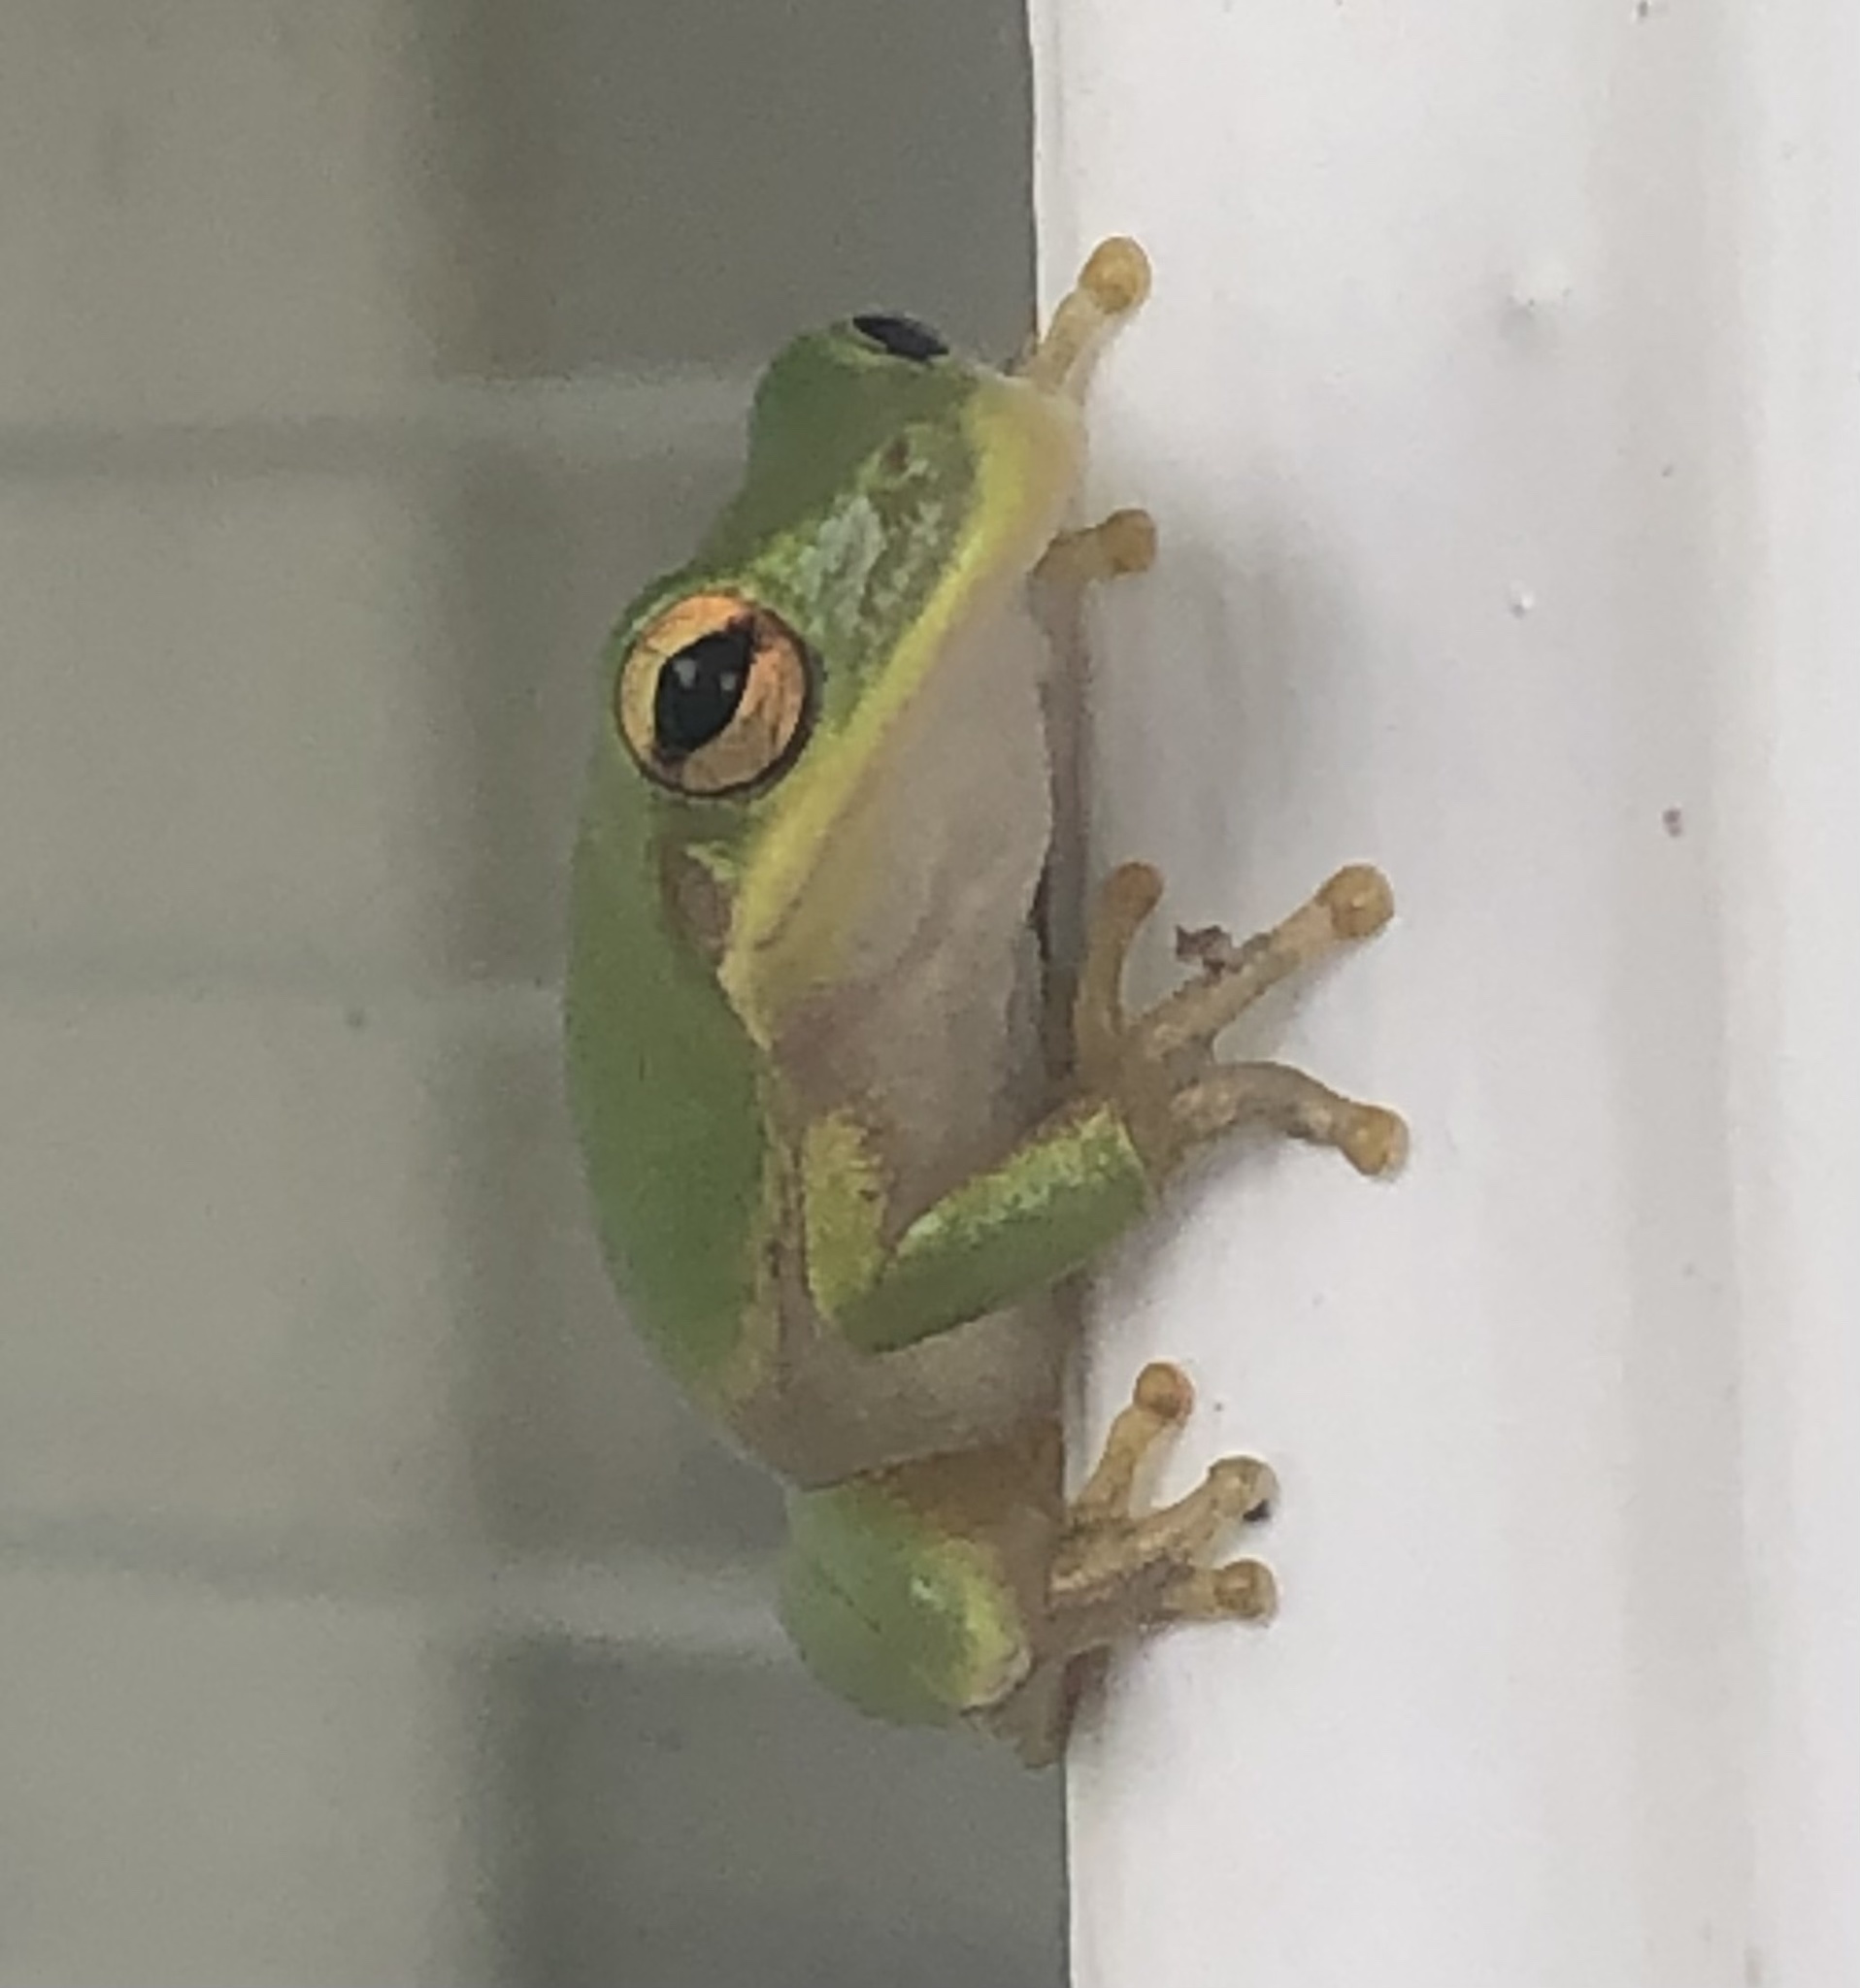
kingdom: Animalia
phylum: Chordata
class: Amphibia
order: Anura
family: Hylidae
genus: Dryophytes
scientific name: Dryophytes squirellus
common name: Squirrel treefrog
